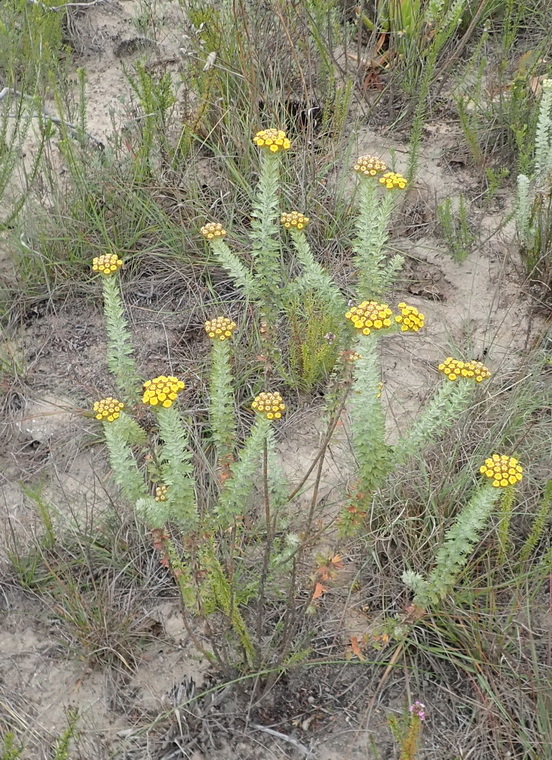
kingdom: Plantae
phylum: Tracheophyta
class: Magnoliopsida
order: Asterales
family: Asteraceae
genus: Athanasia
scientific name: Athanasia trifurcata
